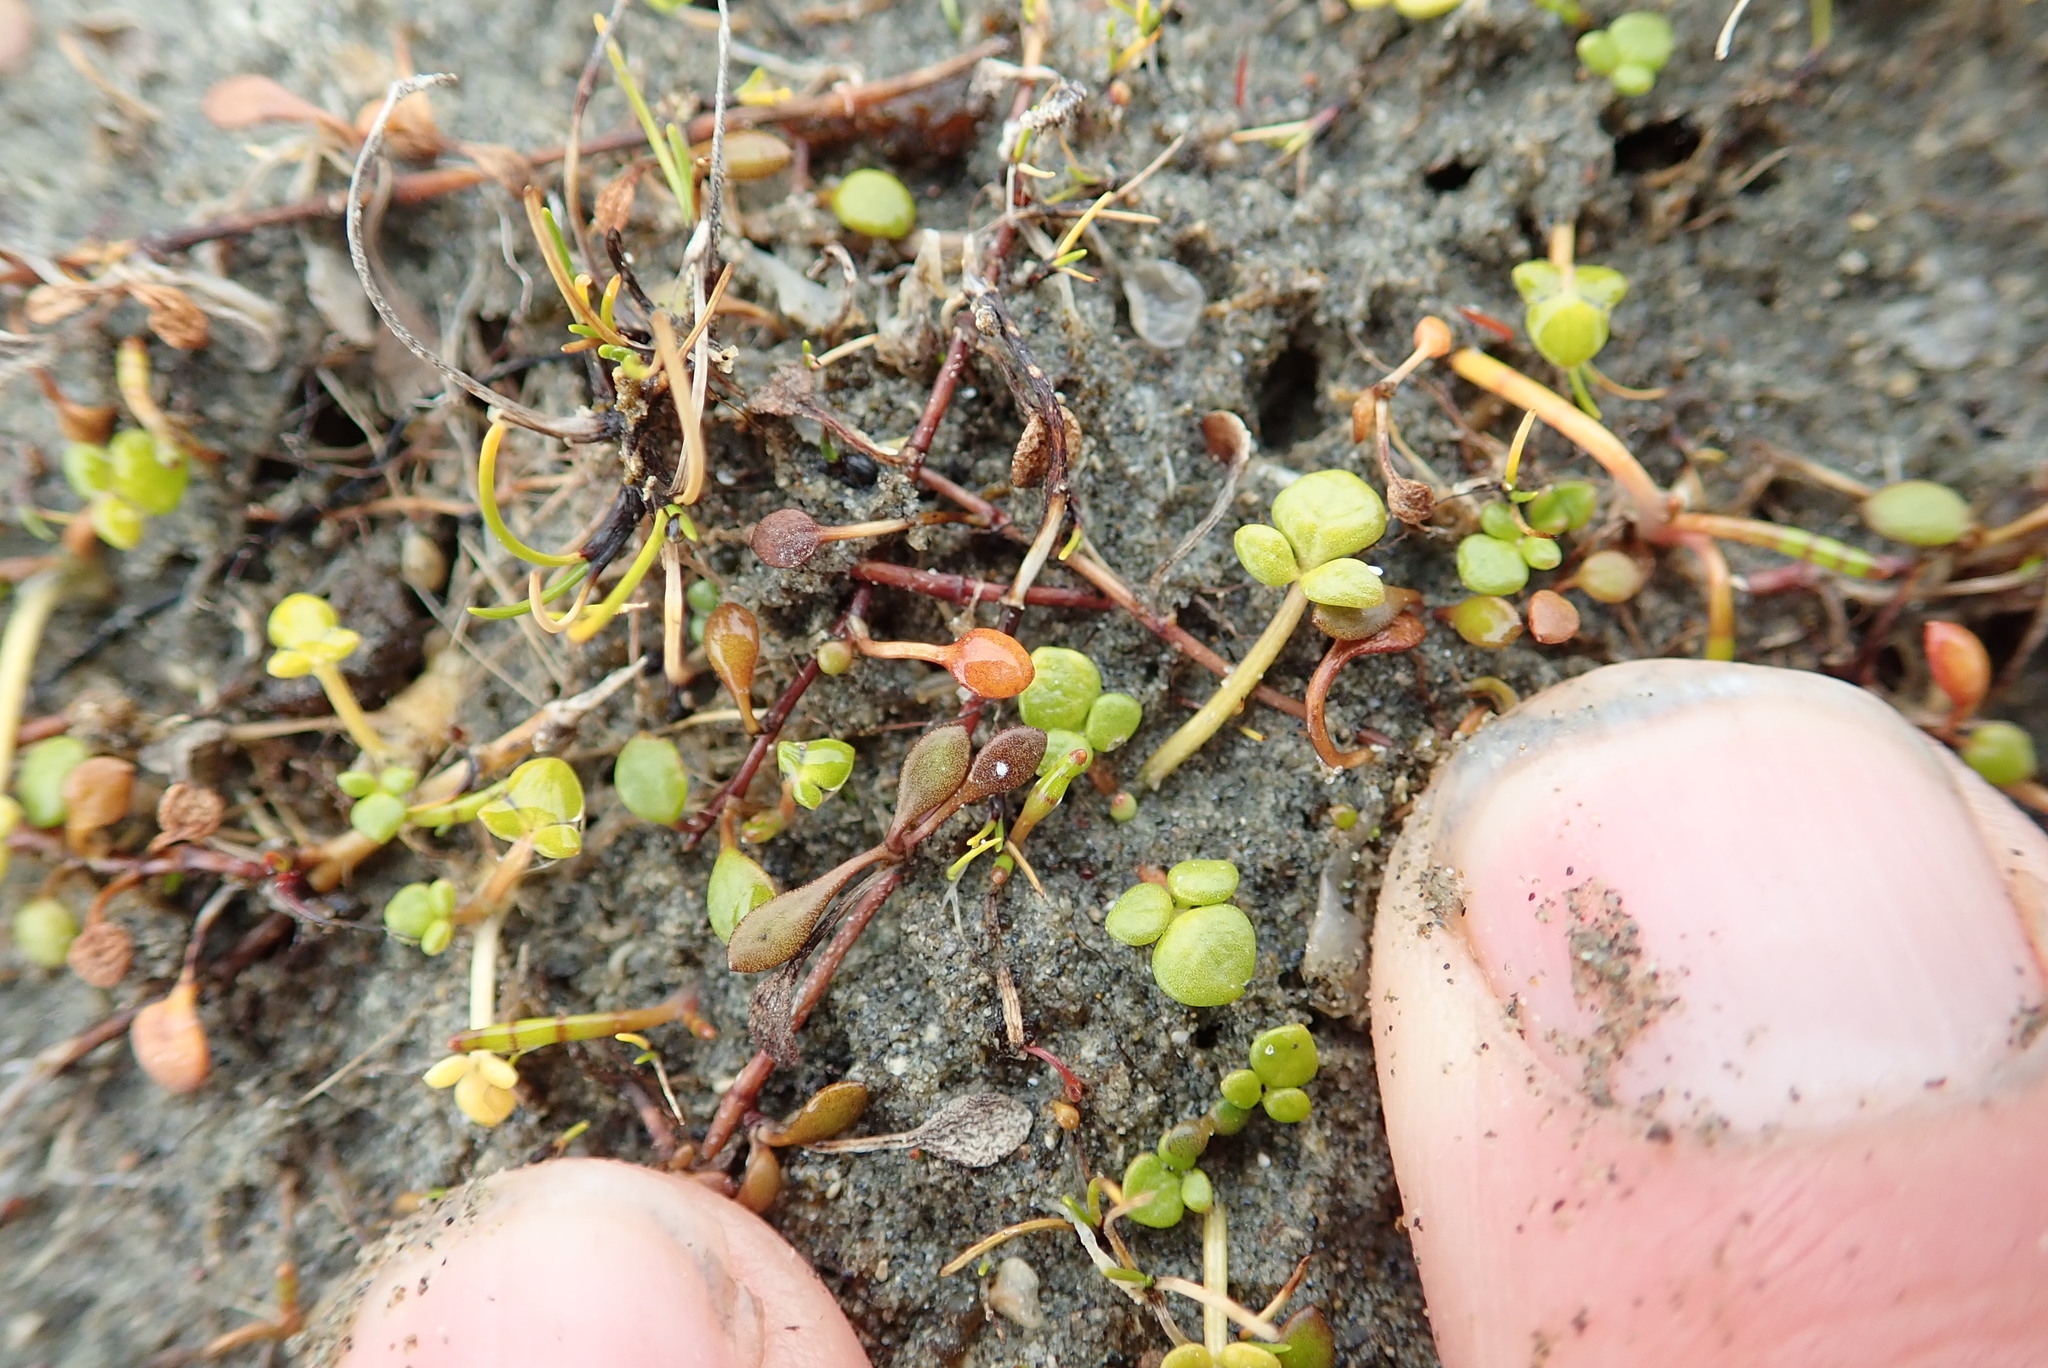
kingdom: Plantae
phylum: Tracheophyta
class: Magnoliopsida
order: Ranunculales
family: Ranunculaceae
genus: Ranunculus
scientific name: Ranunculus acaulis
